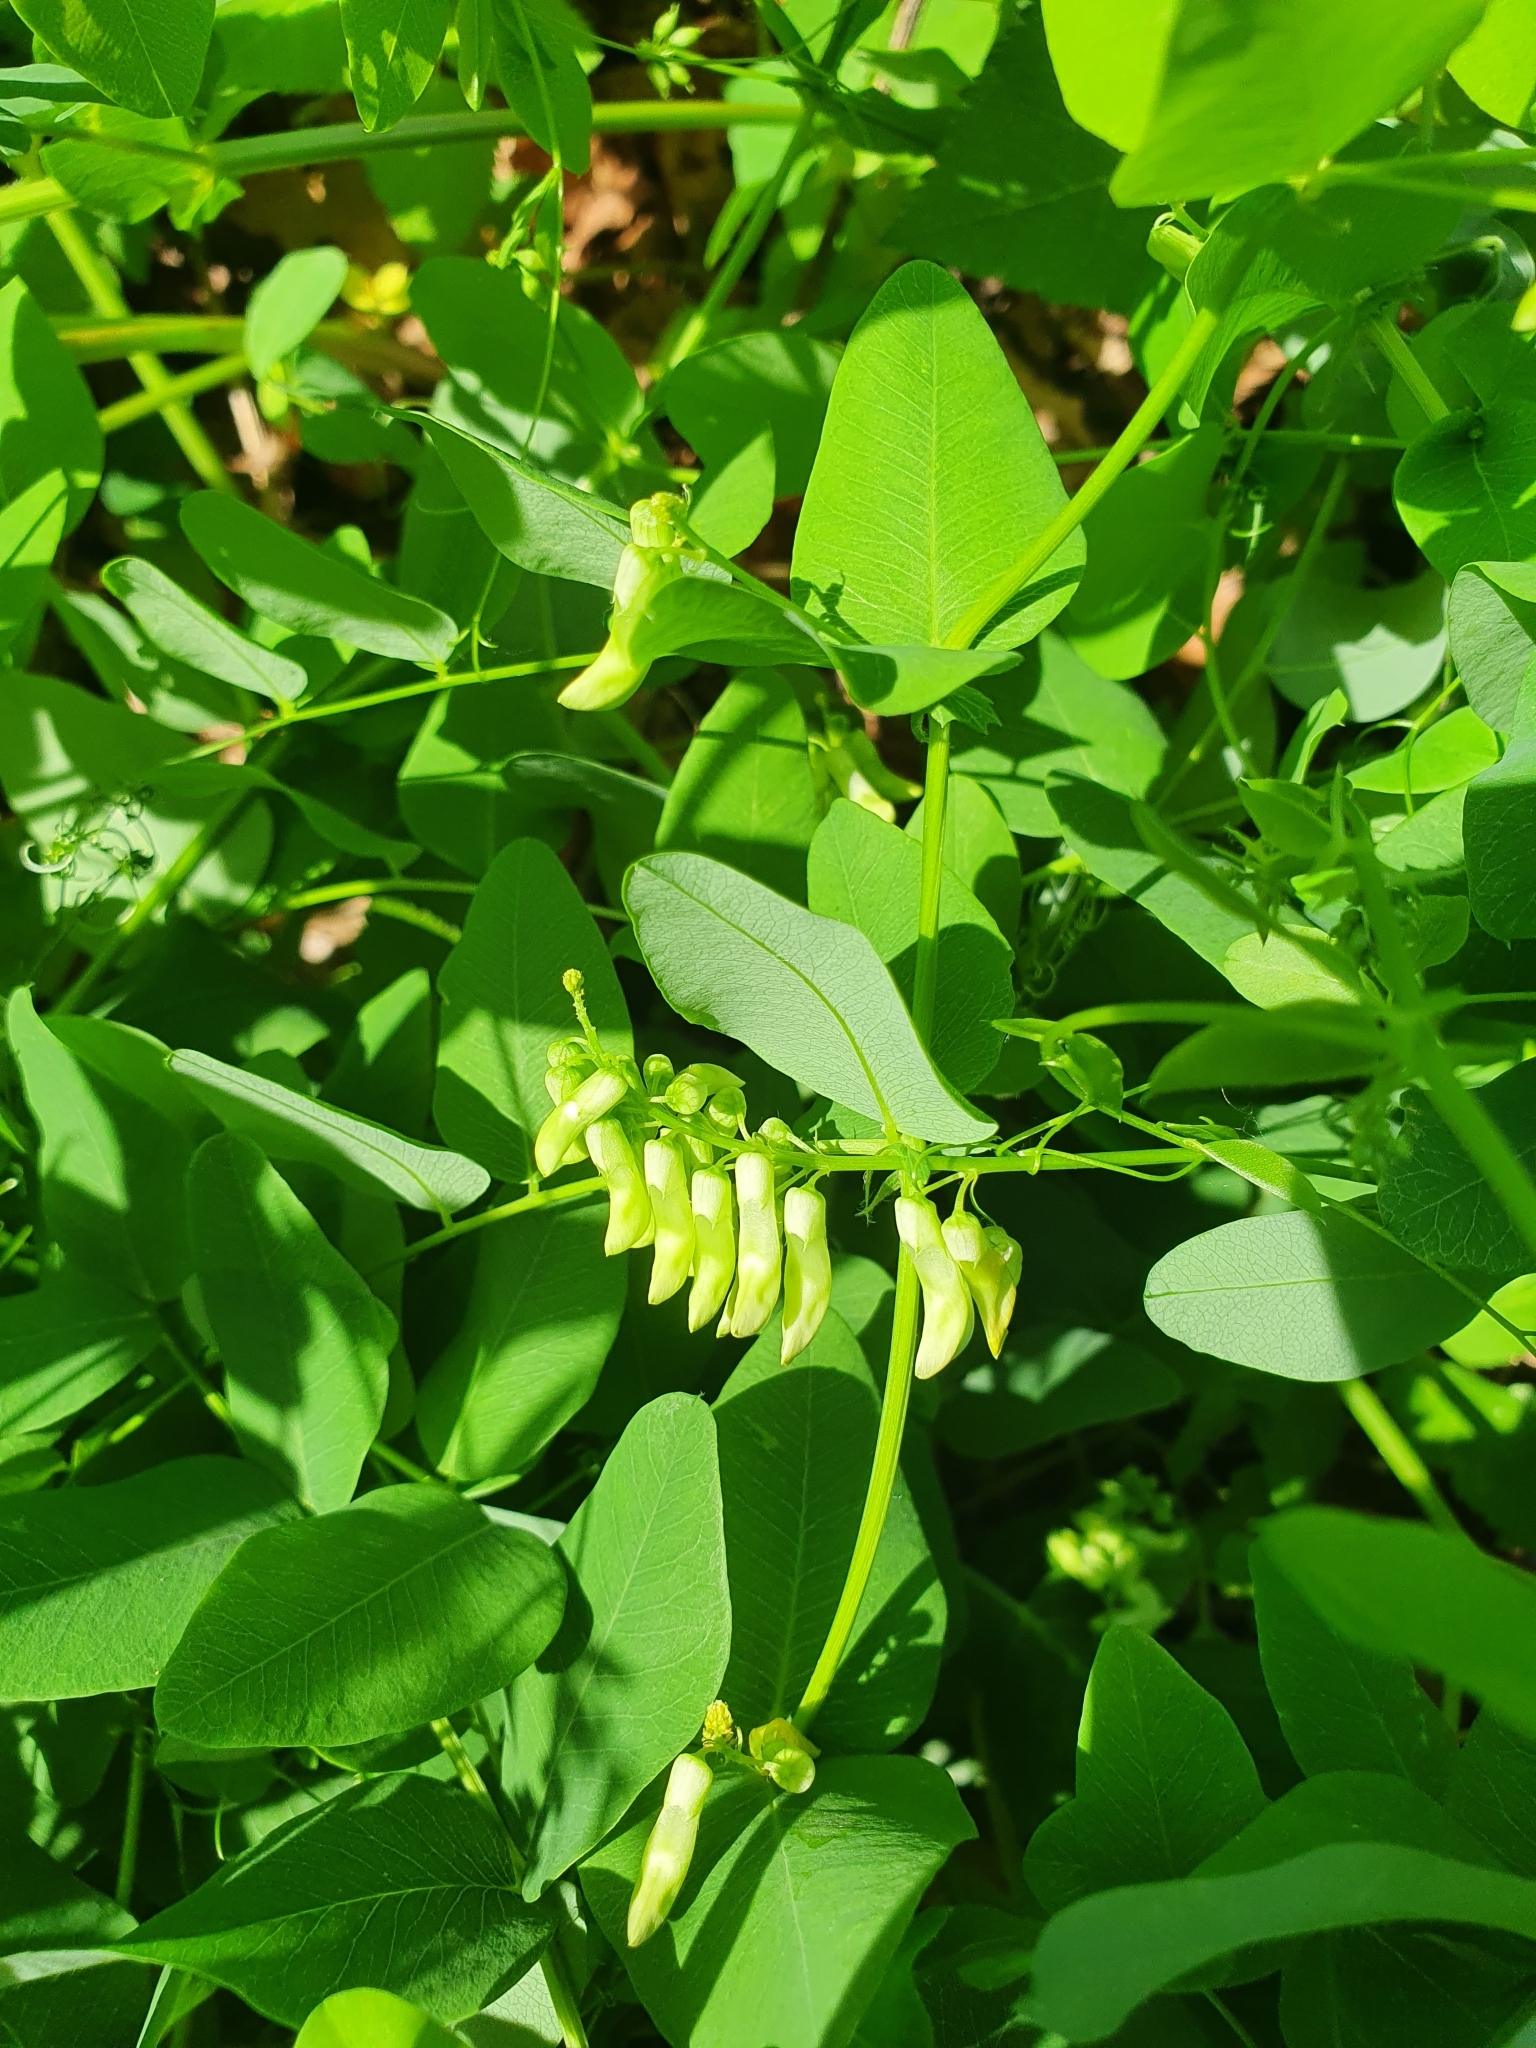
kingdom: Plantae
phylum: Tracheophyta
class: Magnoliopsida
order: Fabales
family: Fabaceae
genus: Vicia
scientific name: Vicia pisiformis
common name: Pale-flower vetch
